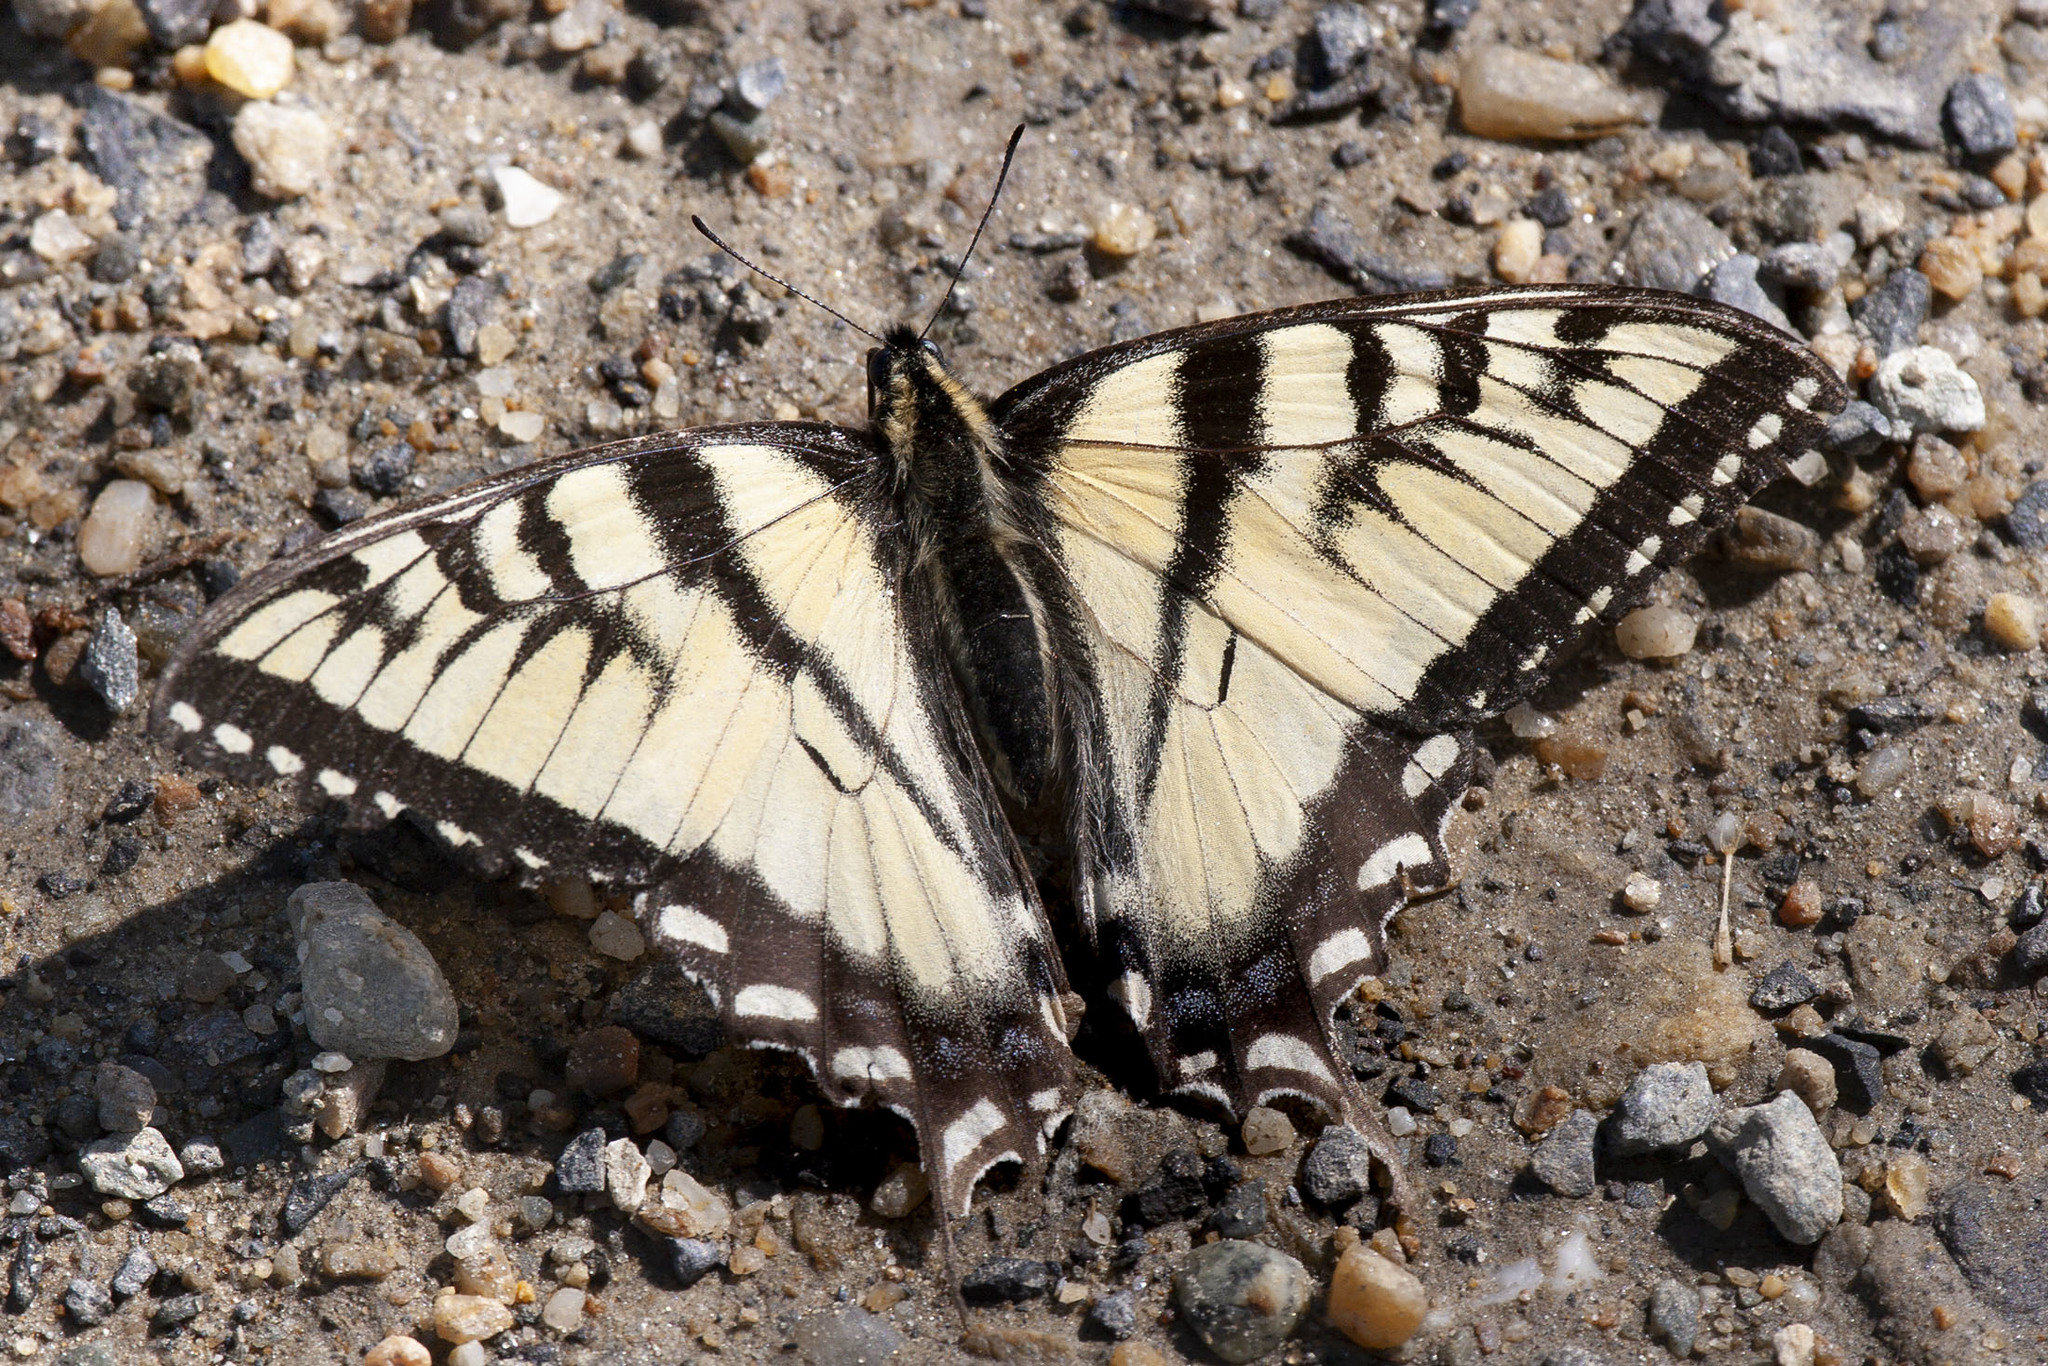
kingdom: Animalia
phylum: Arthropoda
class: Insecta
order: Lepidoptera
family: Papilionidae
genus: Papilio
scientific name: Papilio canadensis
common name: Canadian tiger swallowtail
